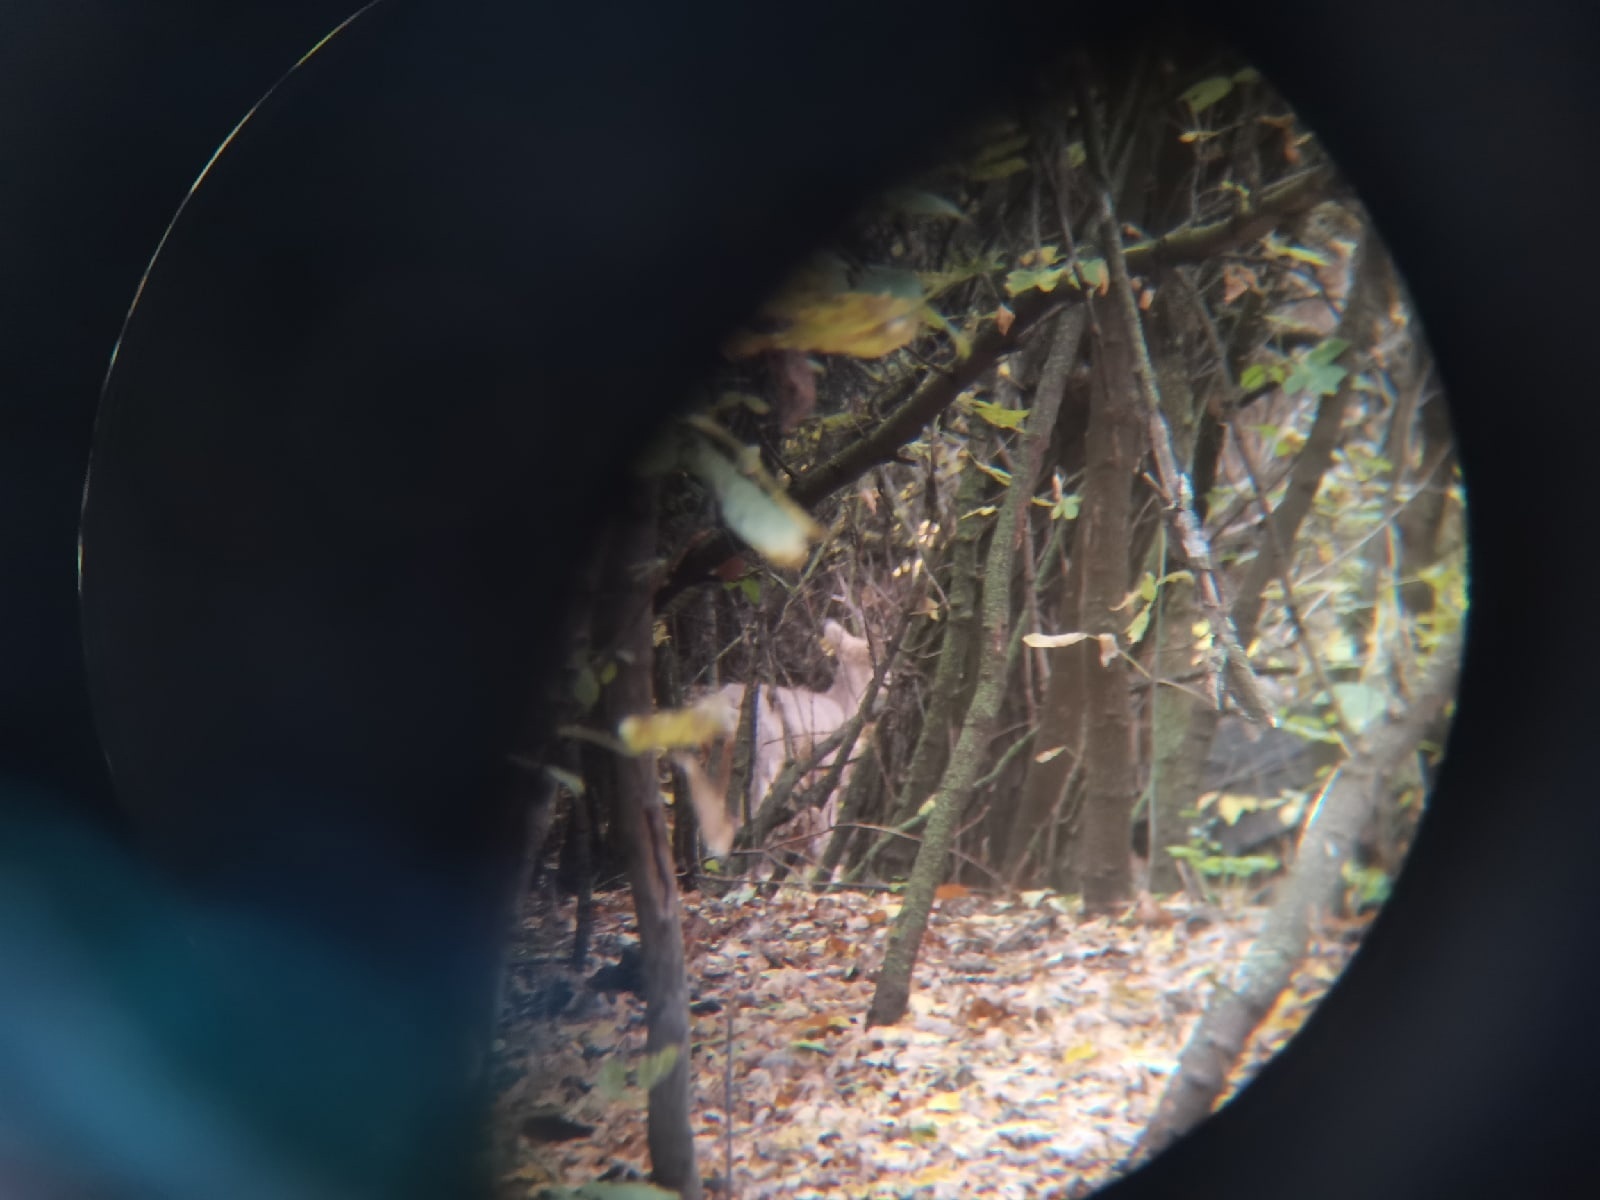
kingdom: Animalia
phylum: Chordata
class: Mammalia
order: Artiodactyla
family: Cervidae
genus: Capreolus
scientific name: Capreolus pygargus
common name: Siberian roe
